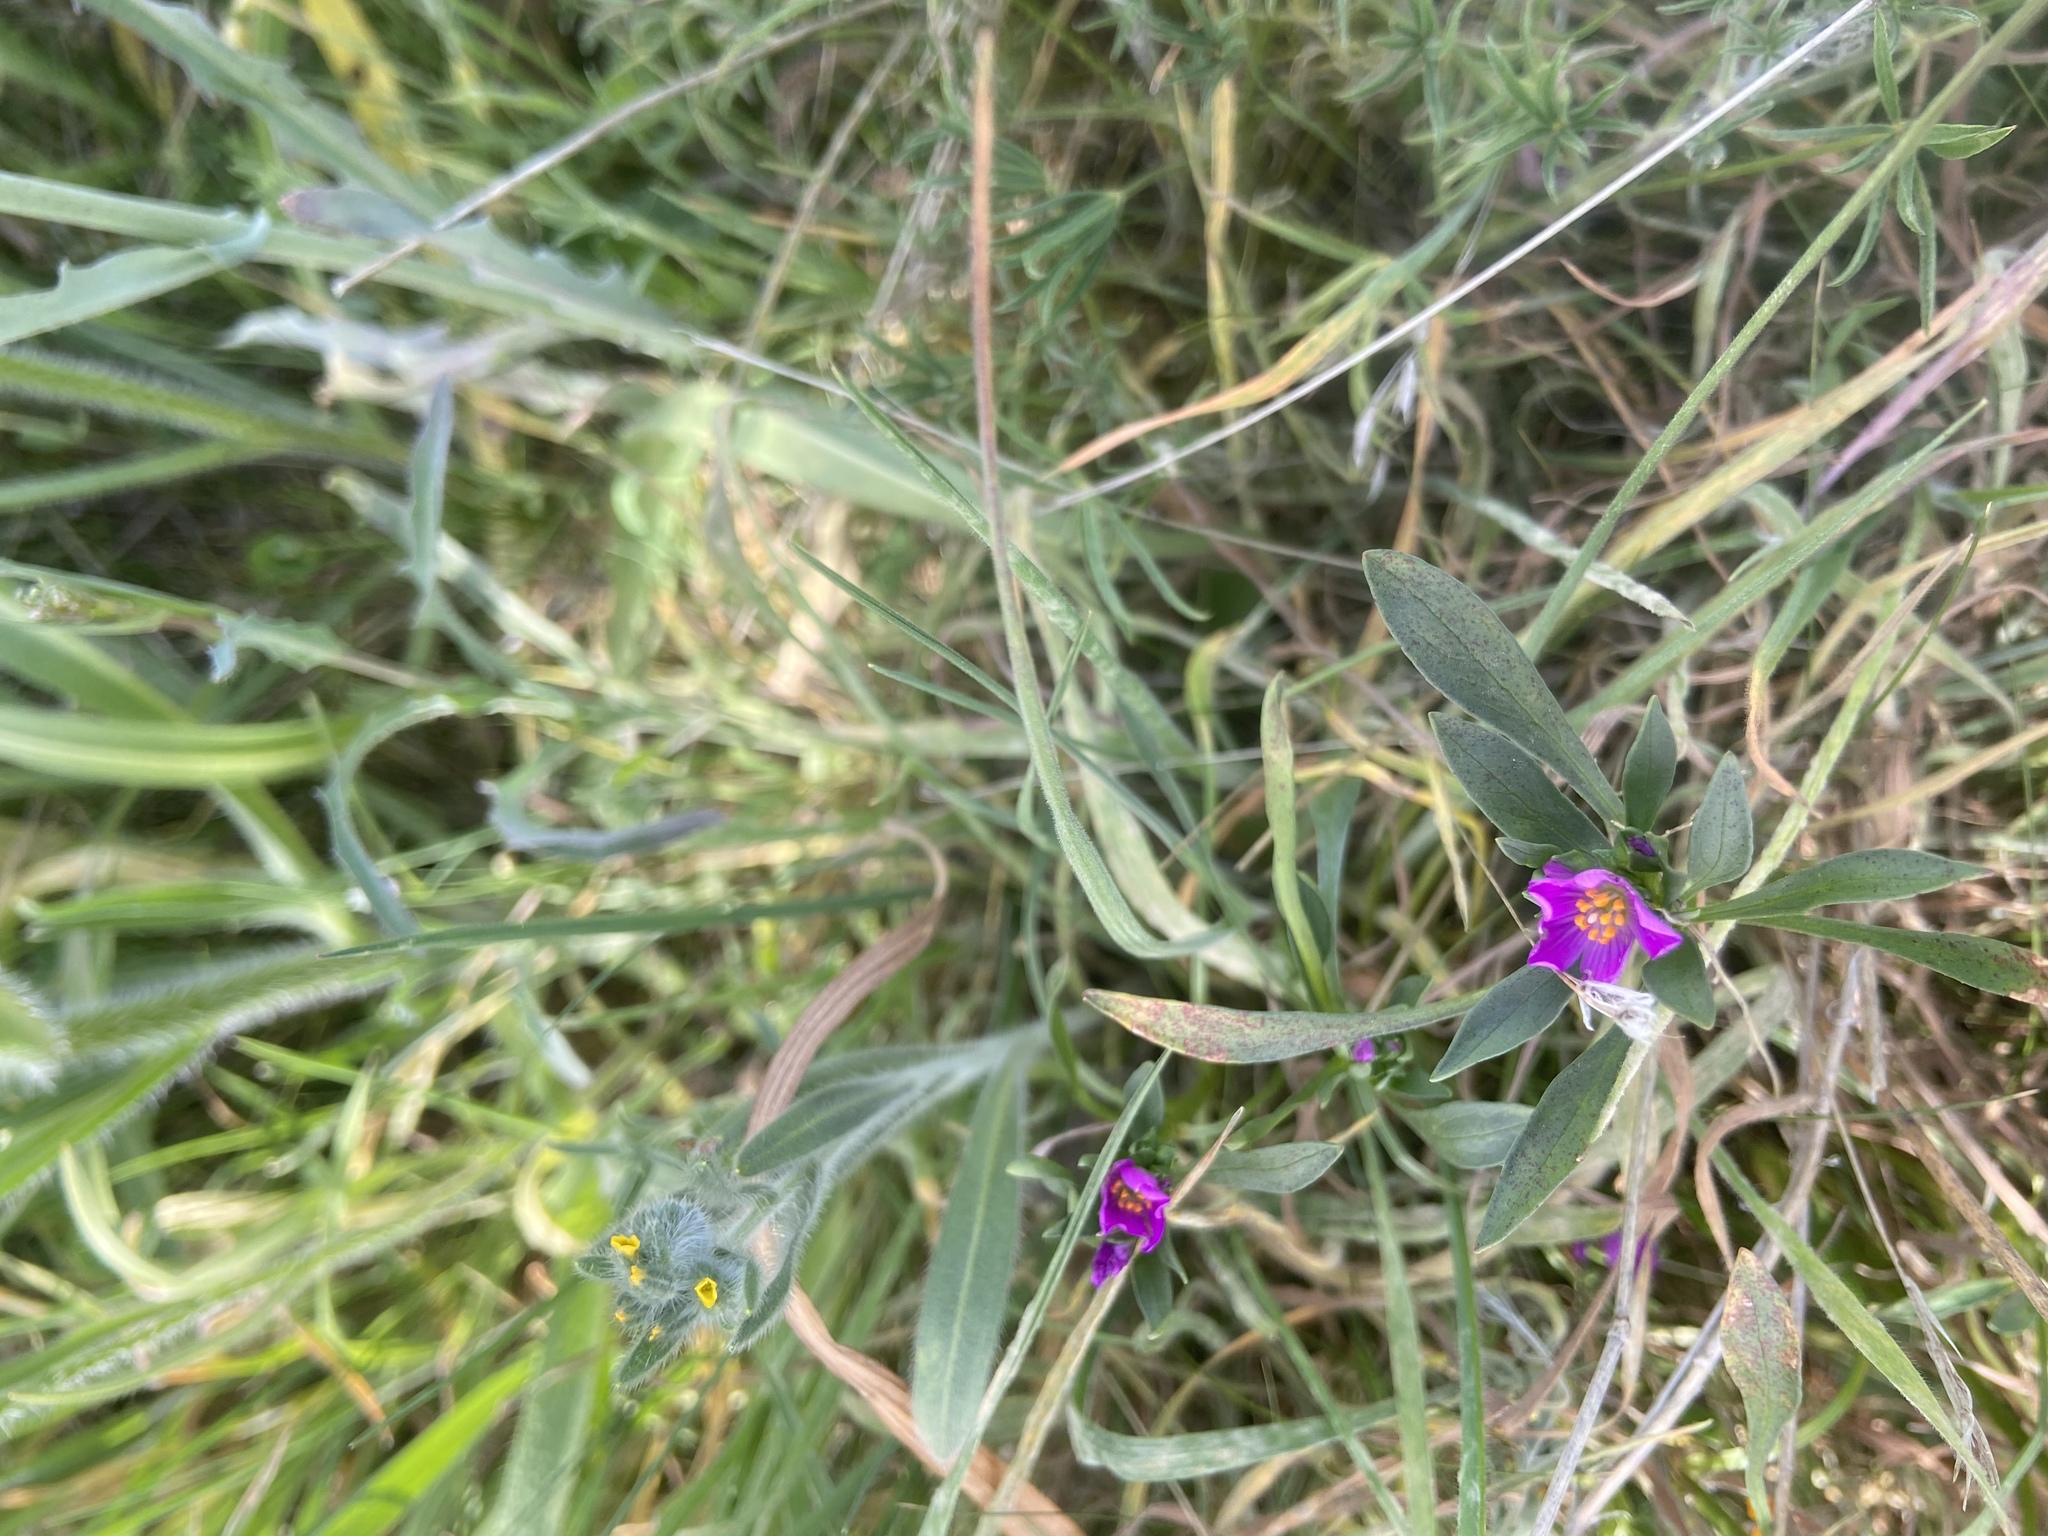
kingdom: Plantae
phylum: Tracheophyta
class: Magnoliopsida
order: Caryophyllales
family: Montiaceae
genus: Calandrinia
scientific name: Calandrinia menziesii
